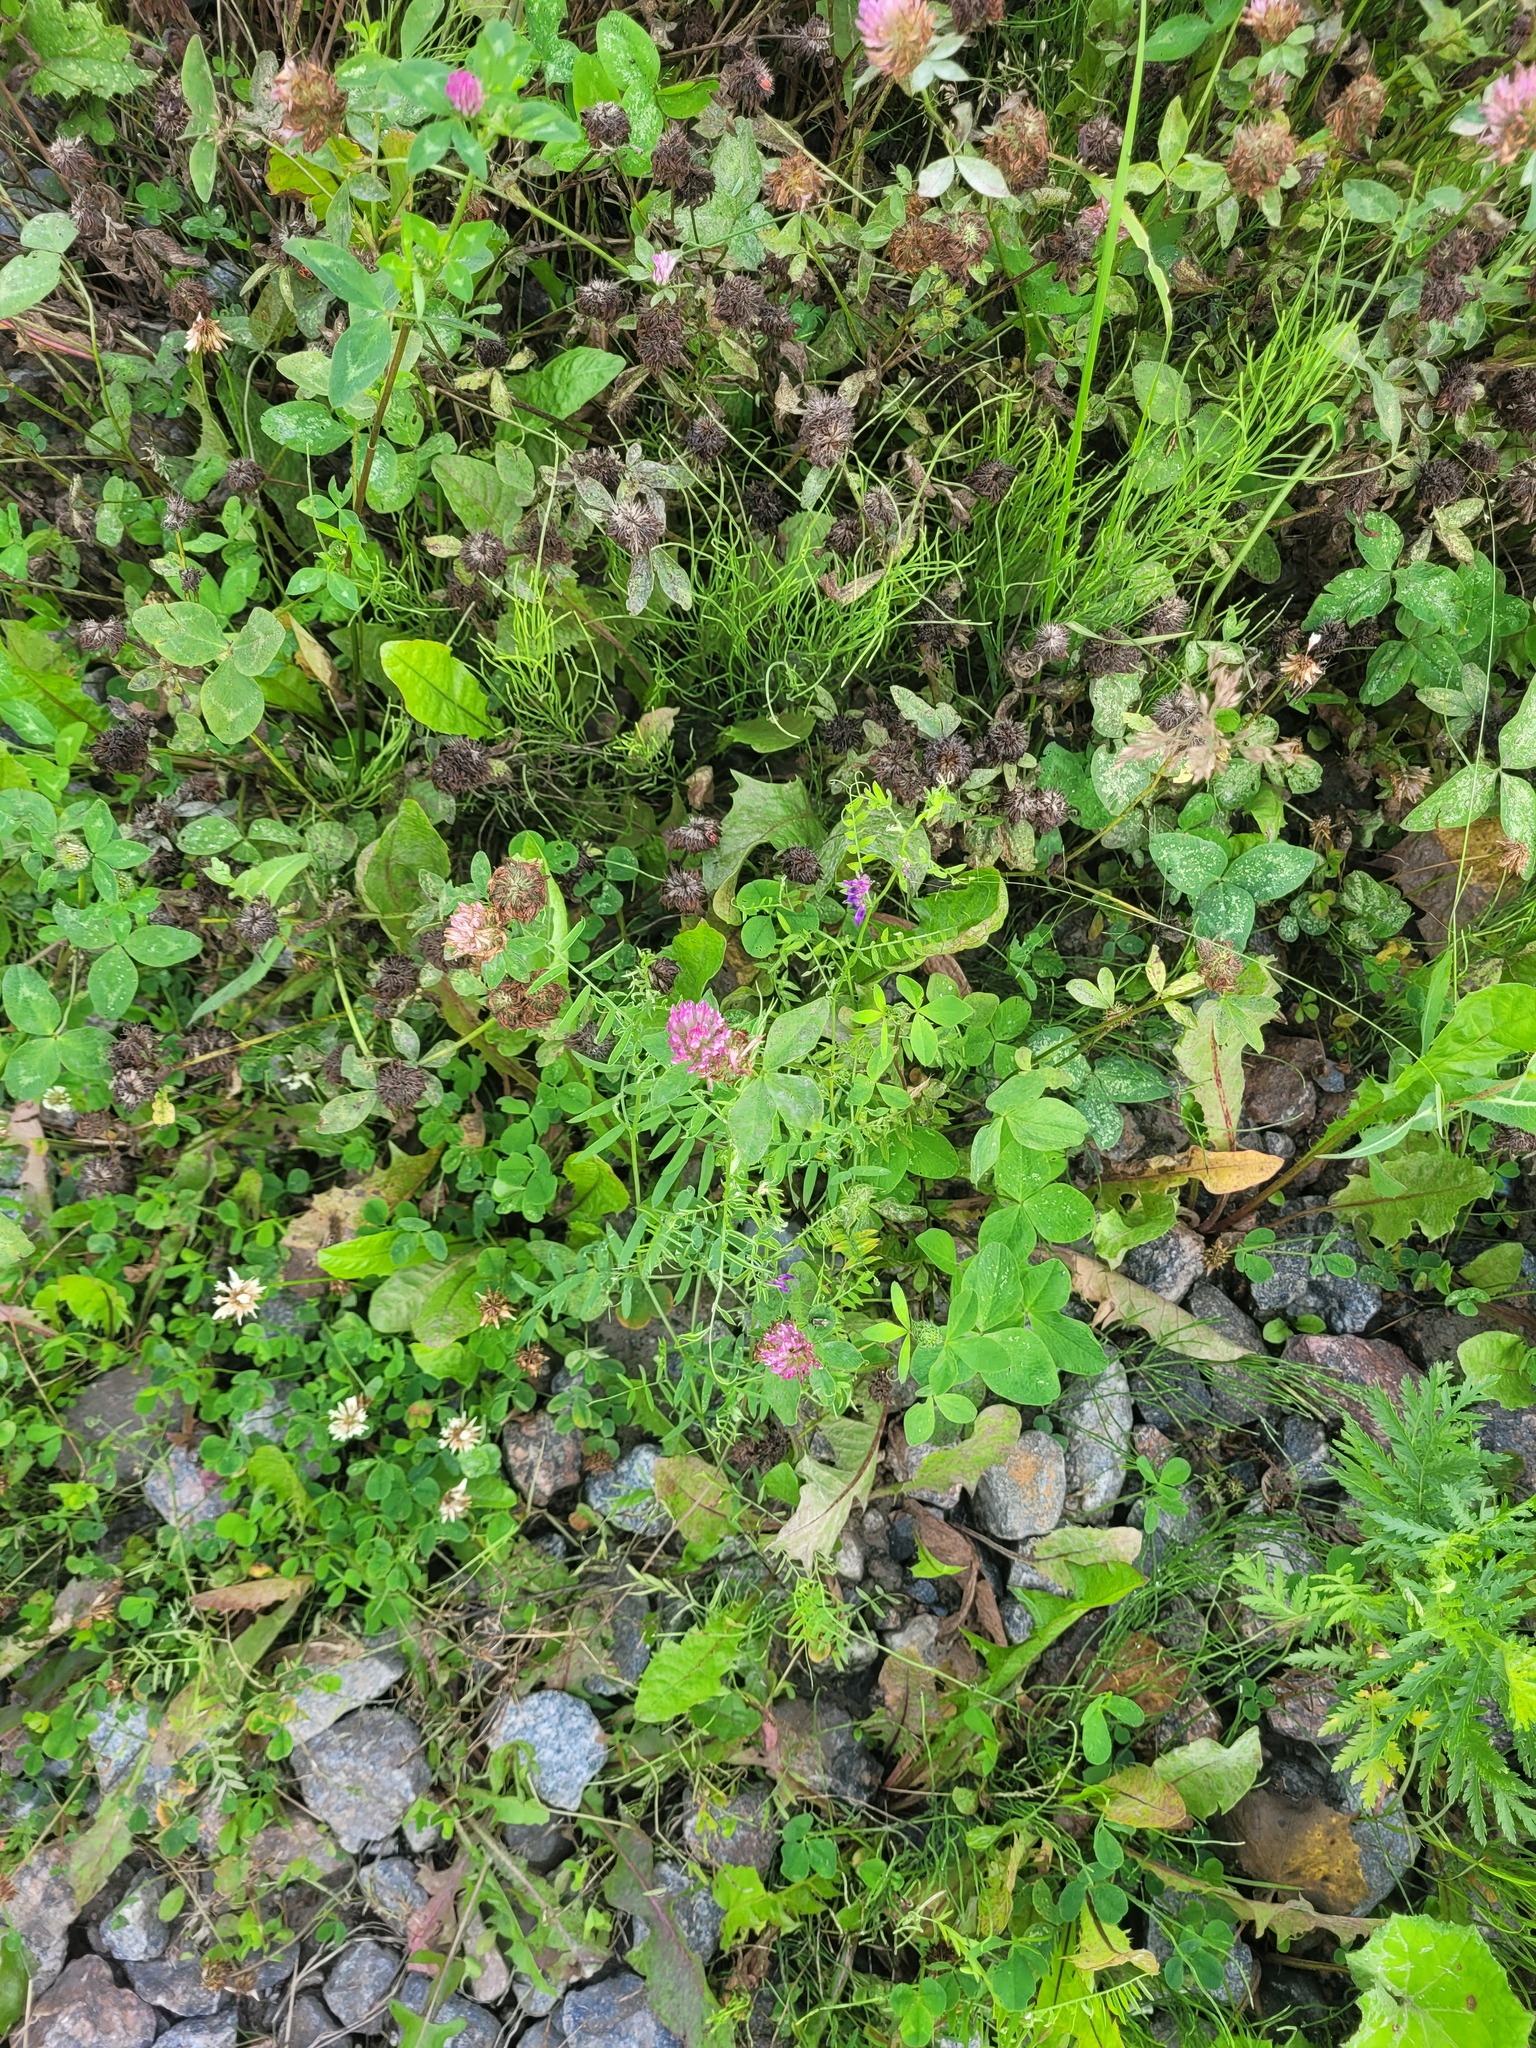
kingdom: Plantae
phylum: Tracheophyta
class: Magnoliopsida
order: Fabales
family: Fabaceae
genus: Trifolium
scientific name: Trifolium pratense
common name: Red clover
